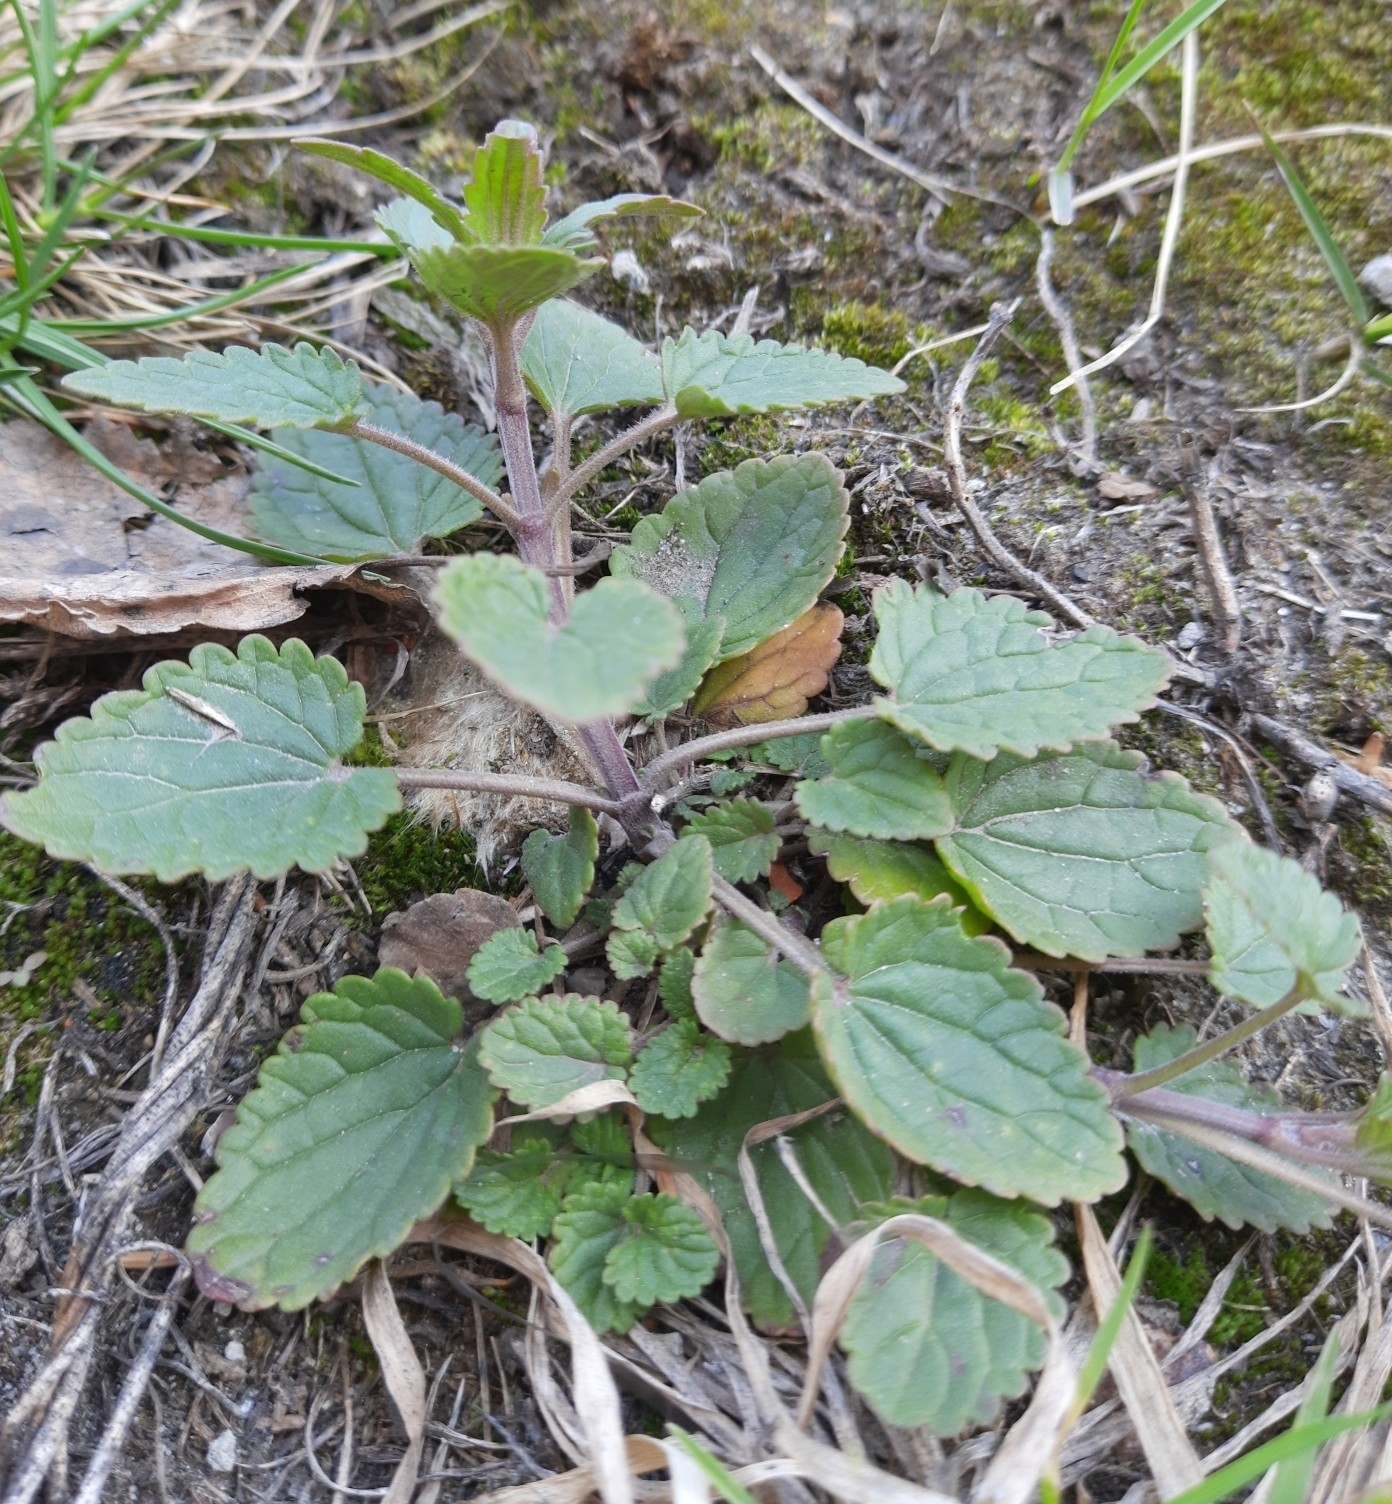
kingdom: Plantae
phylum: Tracheophyta
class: Magnoliopsida
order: Lamiales
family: Lamiaceae
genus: Dracocephalum
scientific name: Dracocephalum thymiflorum
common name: Thymeleaf dragonhead
